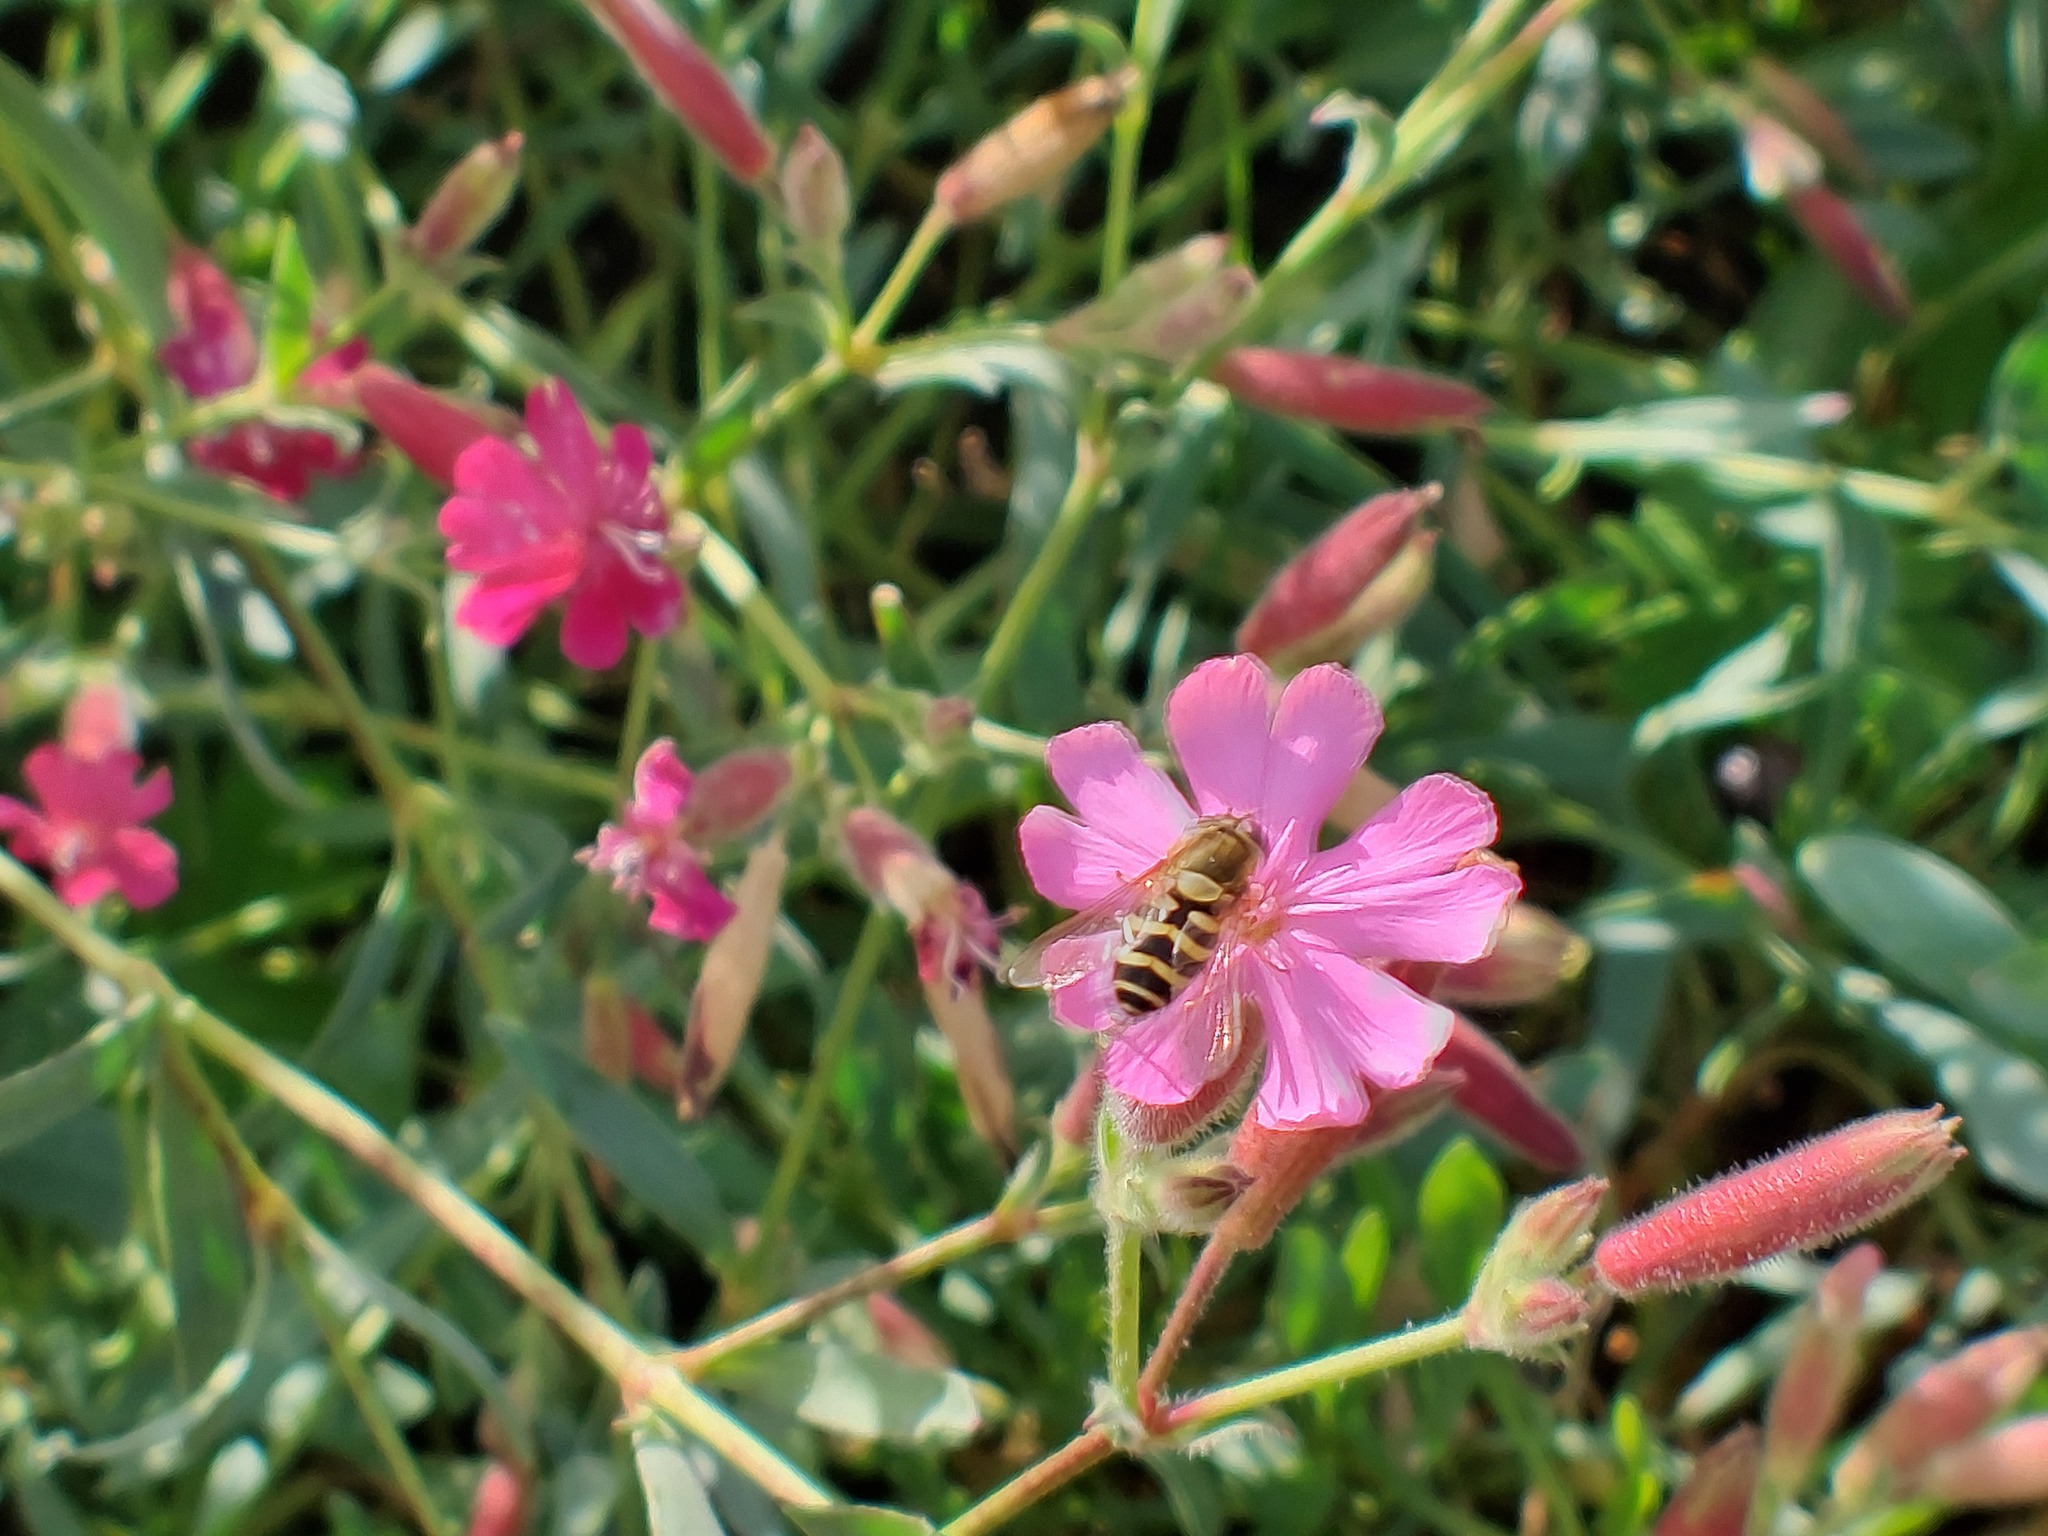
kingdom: Animalia
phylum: Arthropoda
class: Insecta
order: Diptera
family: Syrphidae
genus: Syrphus
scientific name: Syrphus
